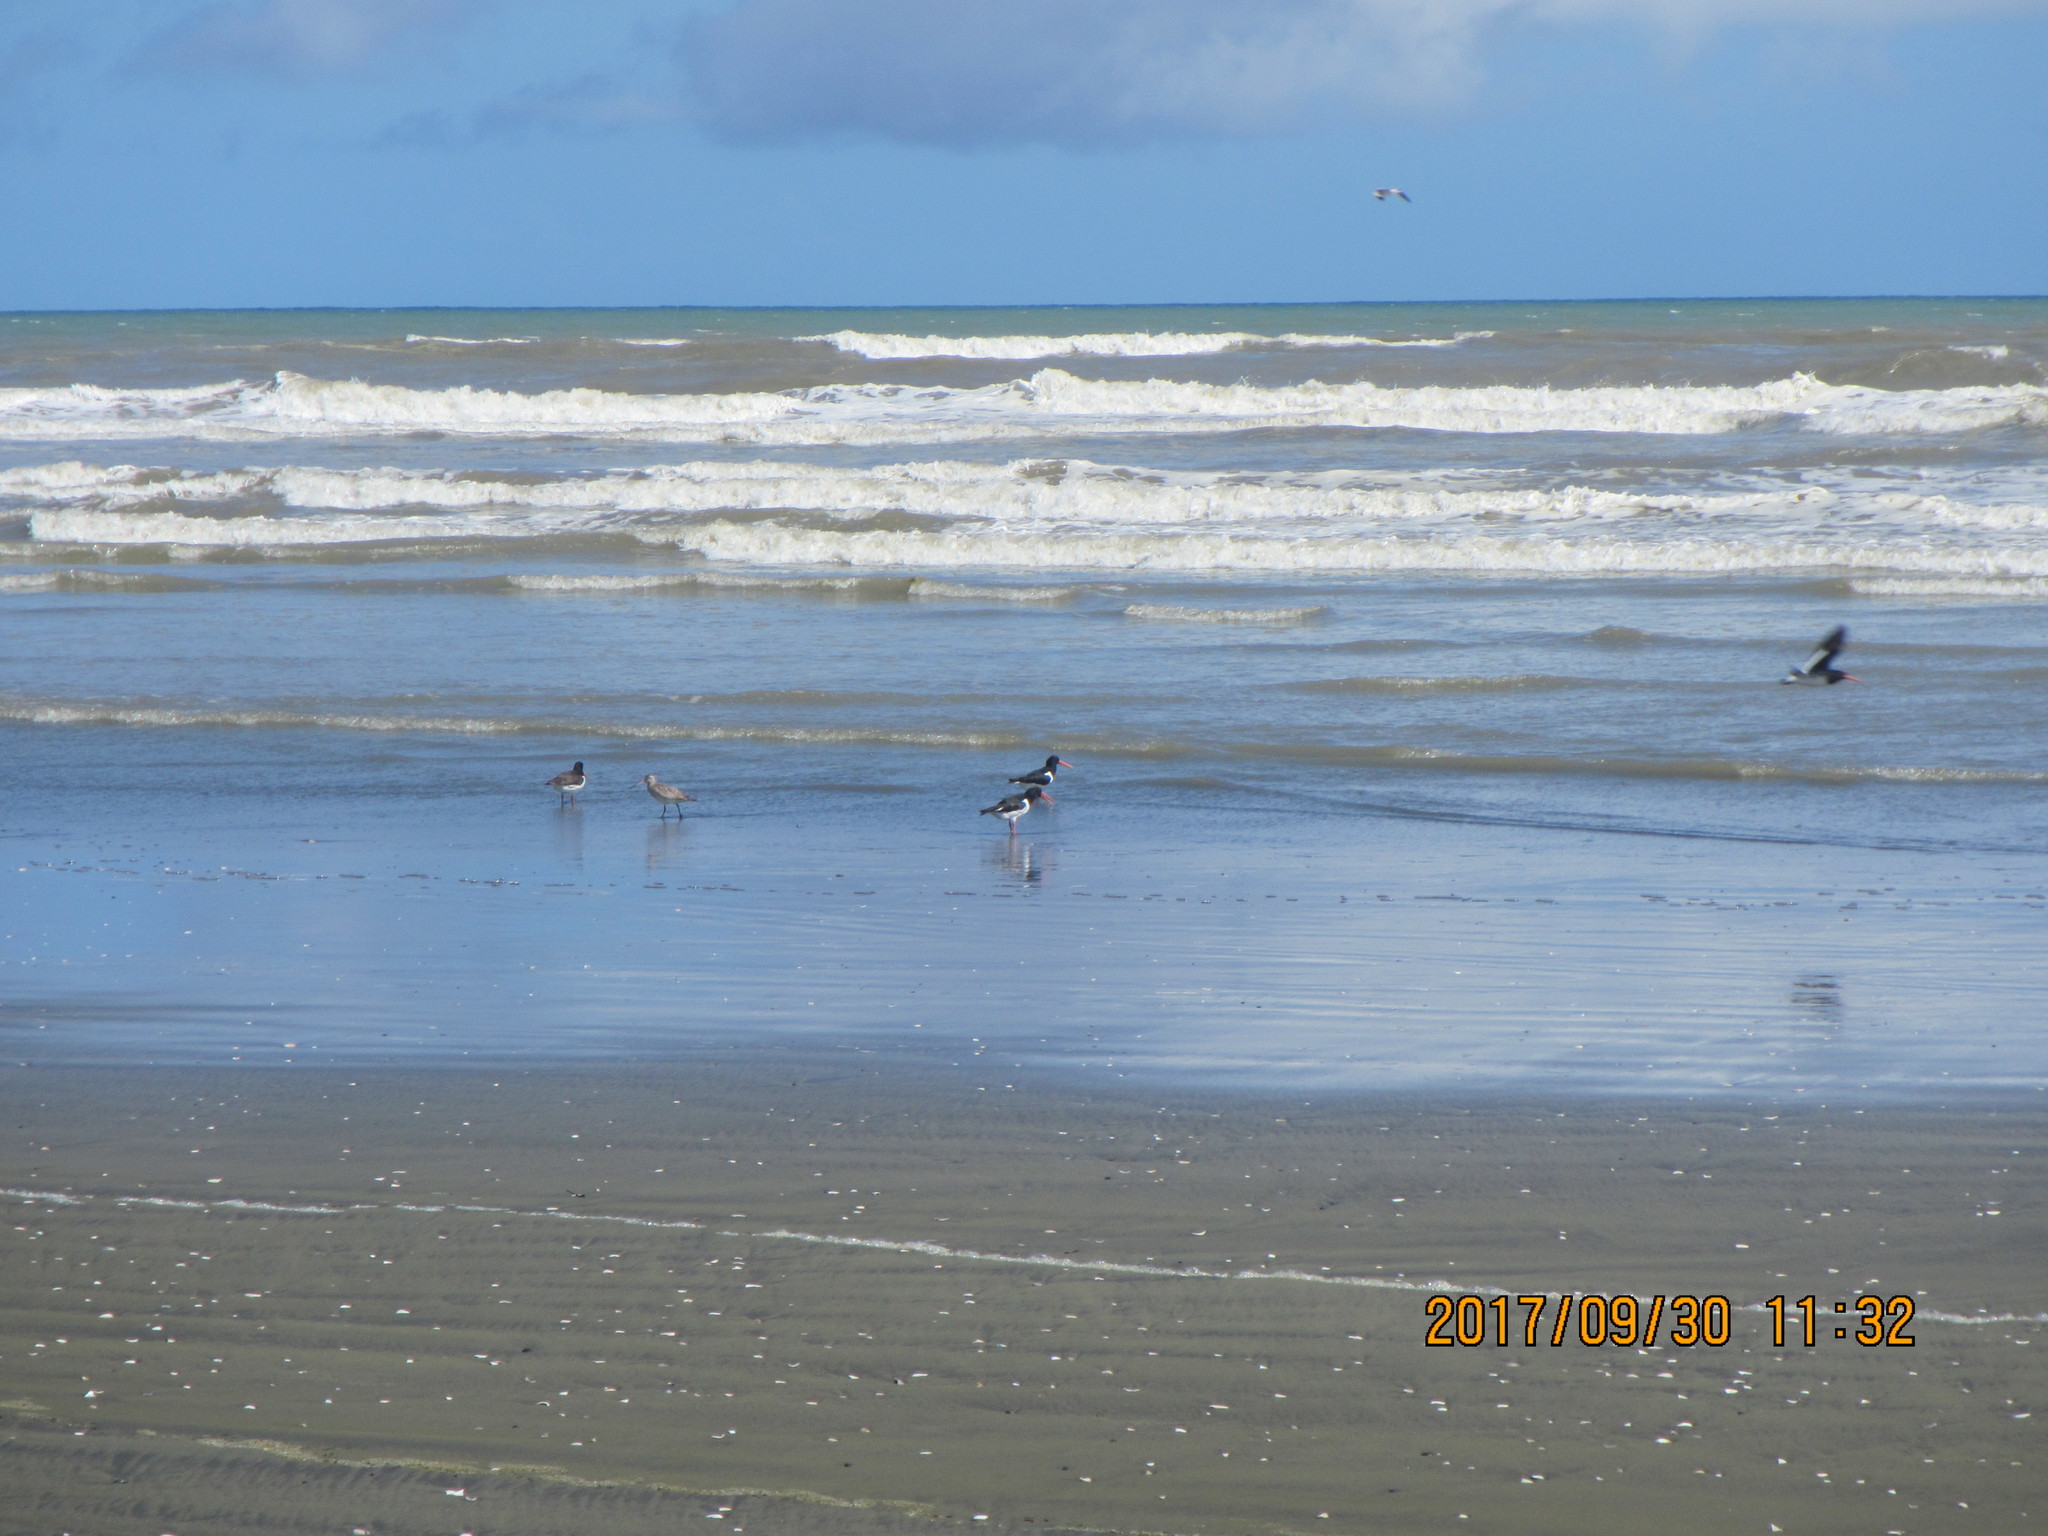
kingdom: Animalia
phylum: Chordata
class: Aves
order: Charadriiformes
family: Haematopodidae
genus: Haematopus
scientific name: Haematopus finschi
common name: South island oystercatcher
